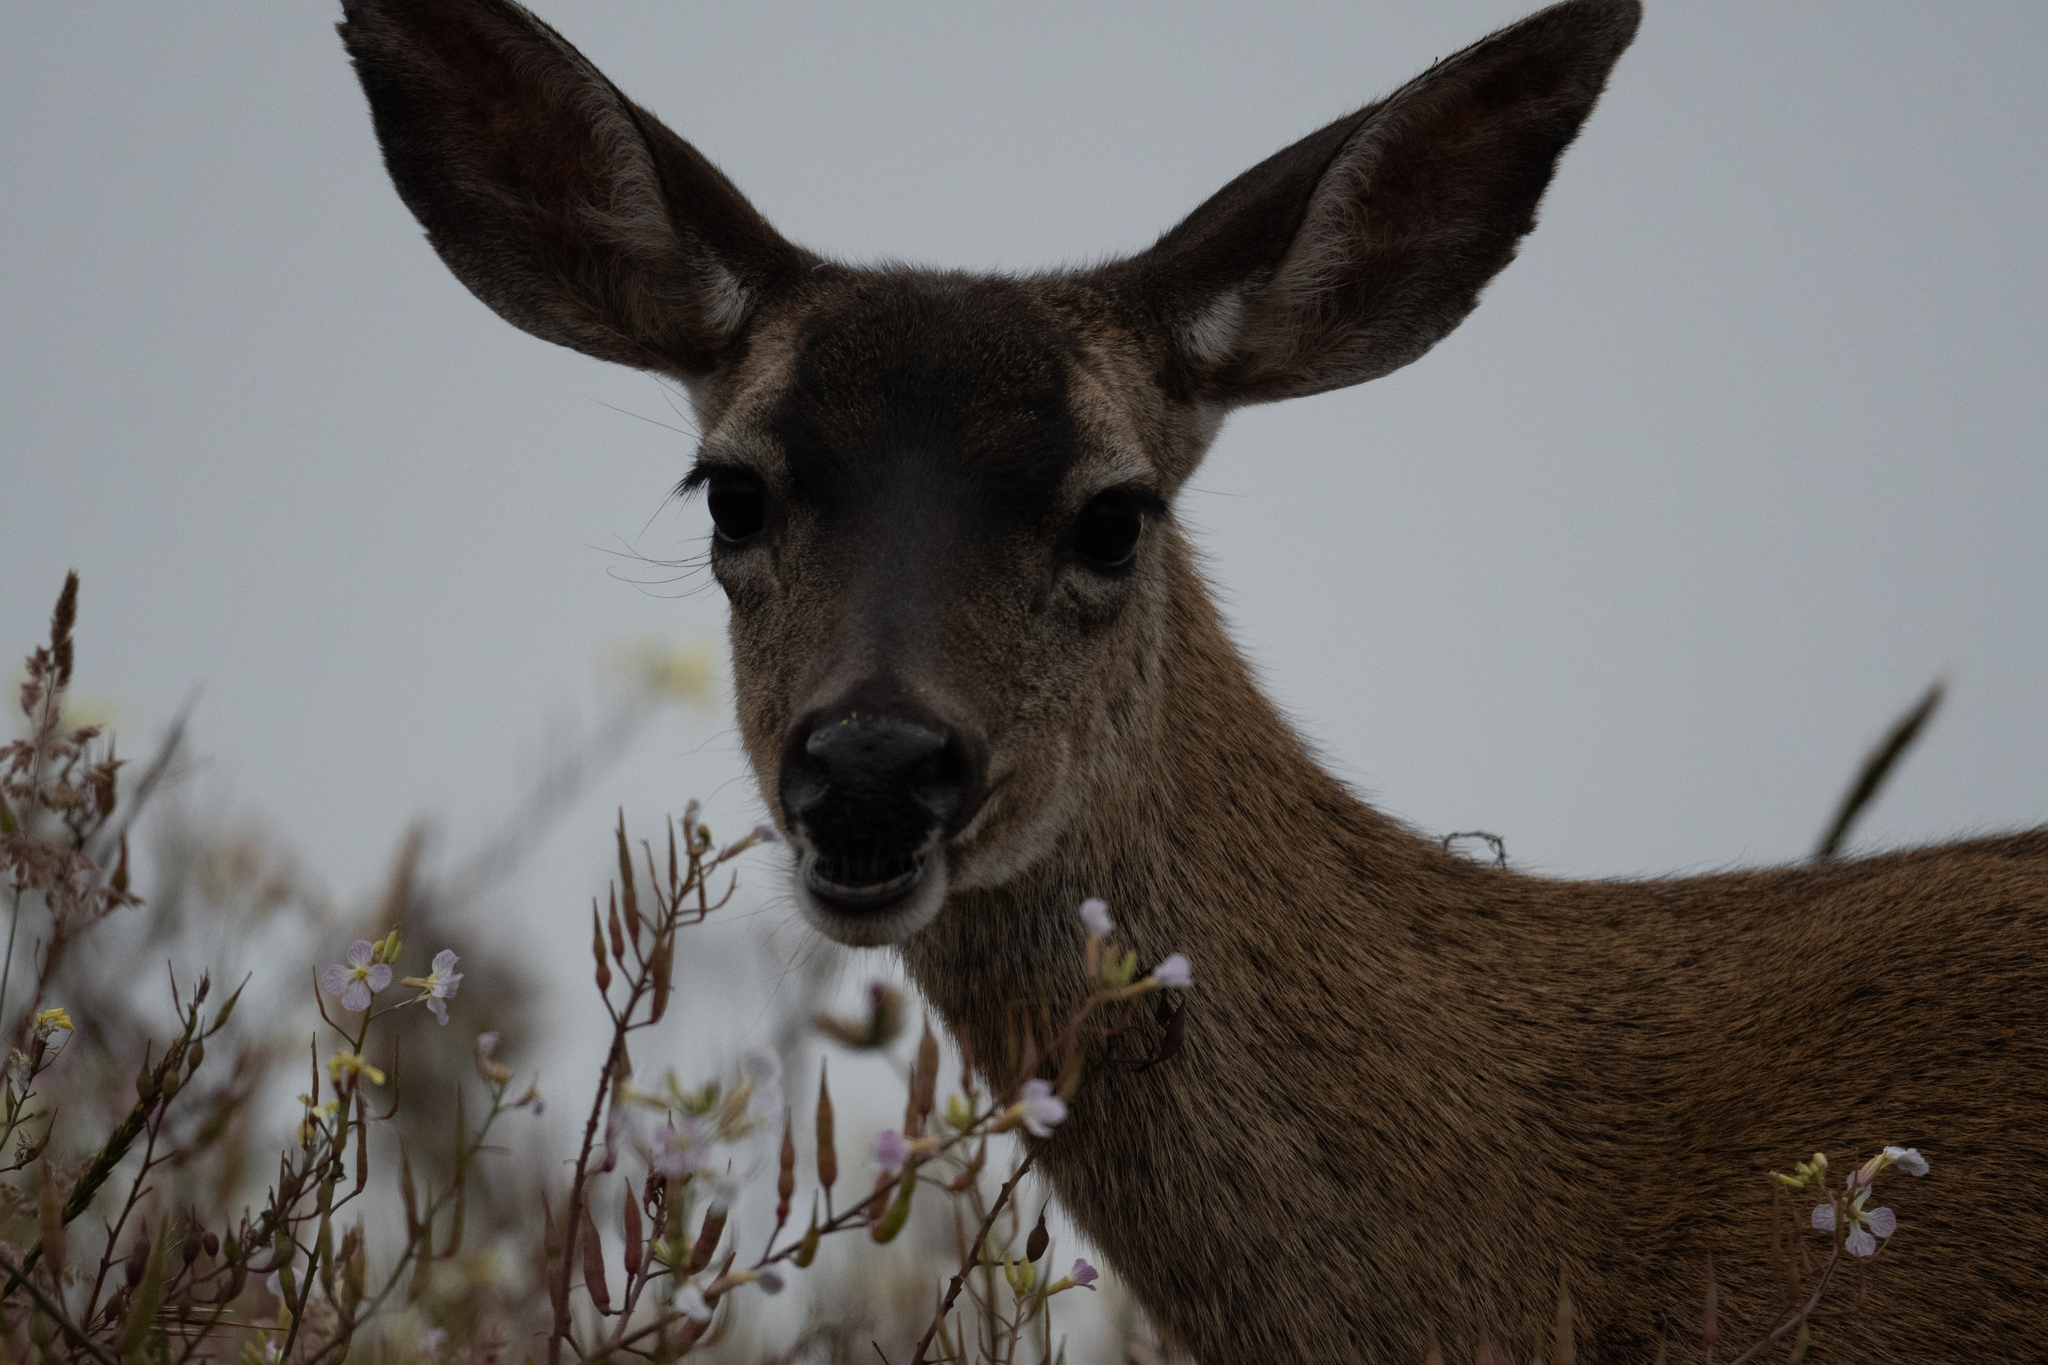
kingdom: Animalia
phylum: Chordata
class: Mammalia
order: Artiodactyla
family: Cervidae
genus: Odocoileus
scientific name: Odocoileus hemionus
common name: Mule deer
